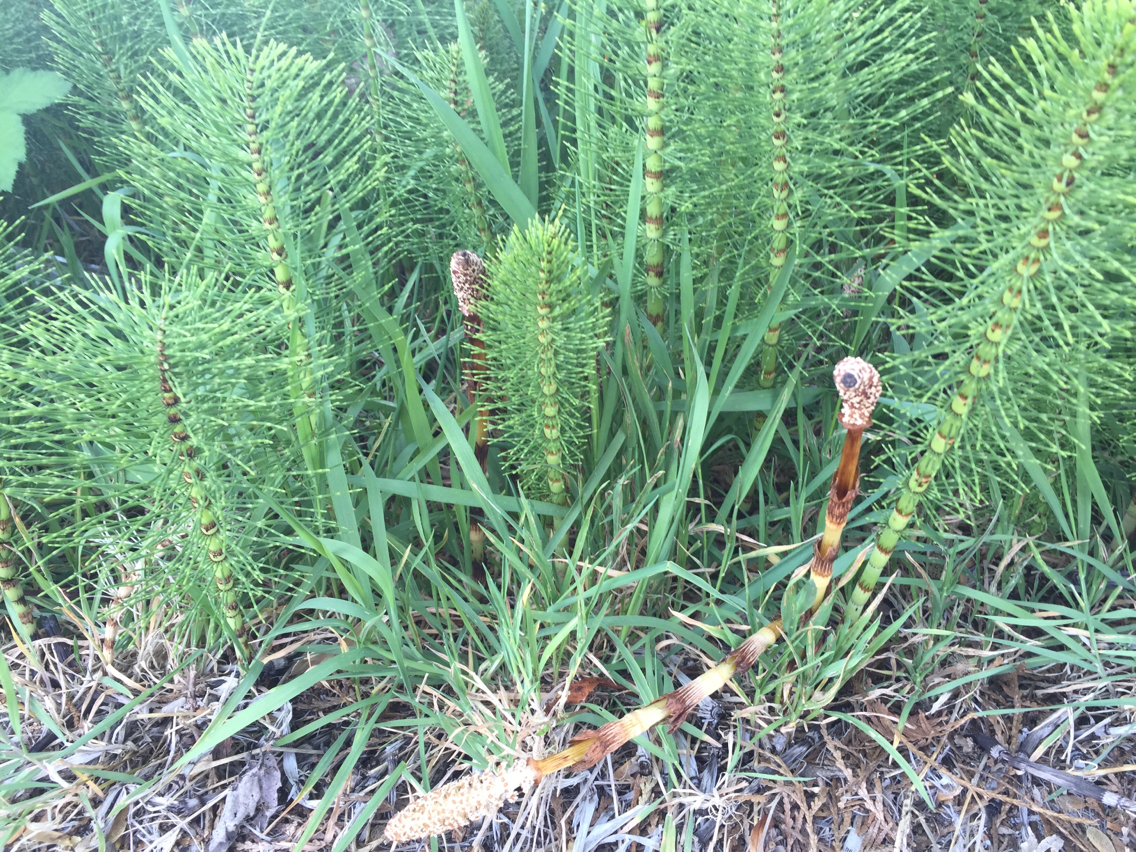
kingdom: Plantae
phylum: Tracheophyta
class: Polypodiopsida
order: Equisetales
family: Equisetaceae
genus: Equisetum
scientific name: Equisetum braunii
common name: Braun's horsetail
